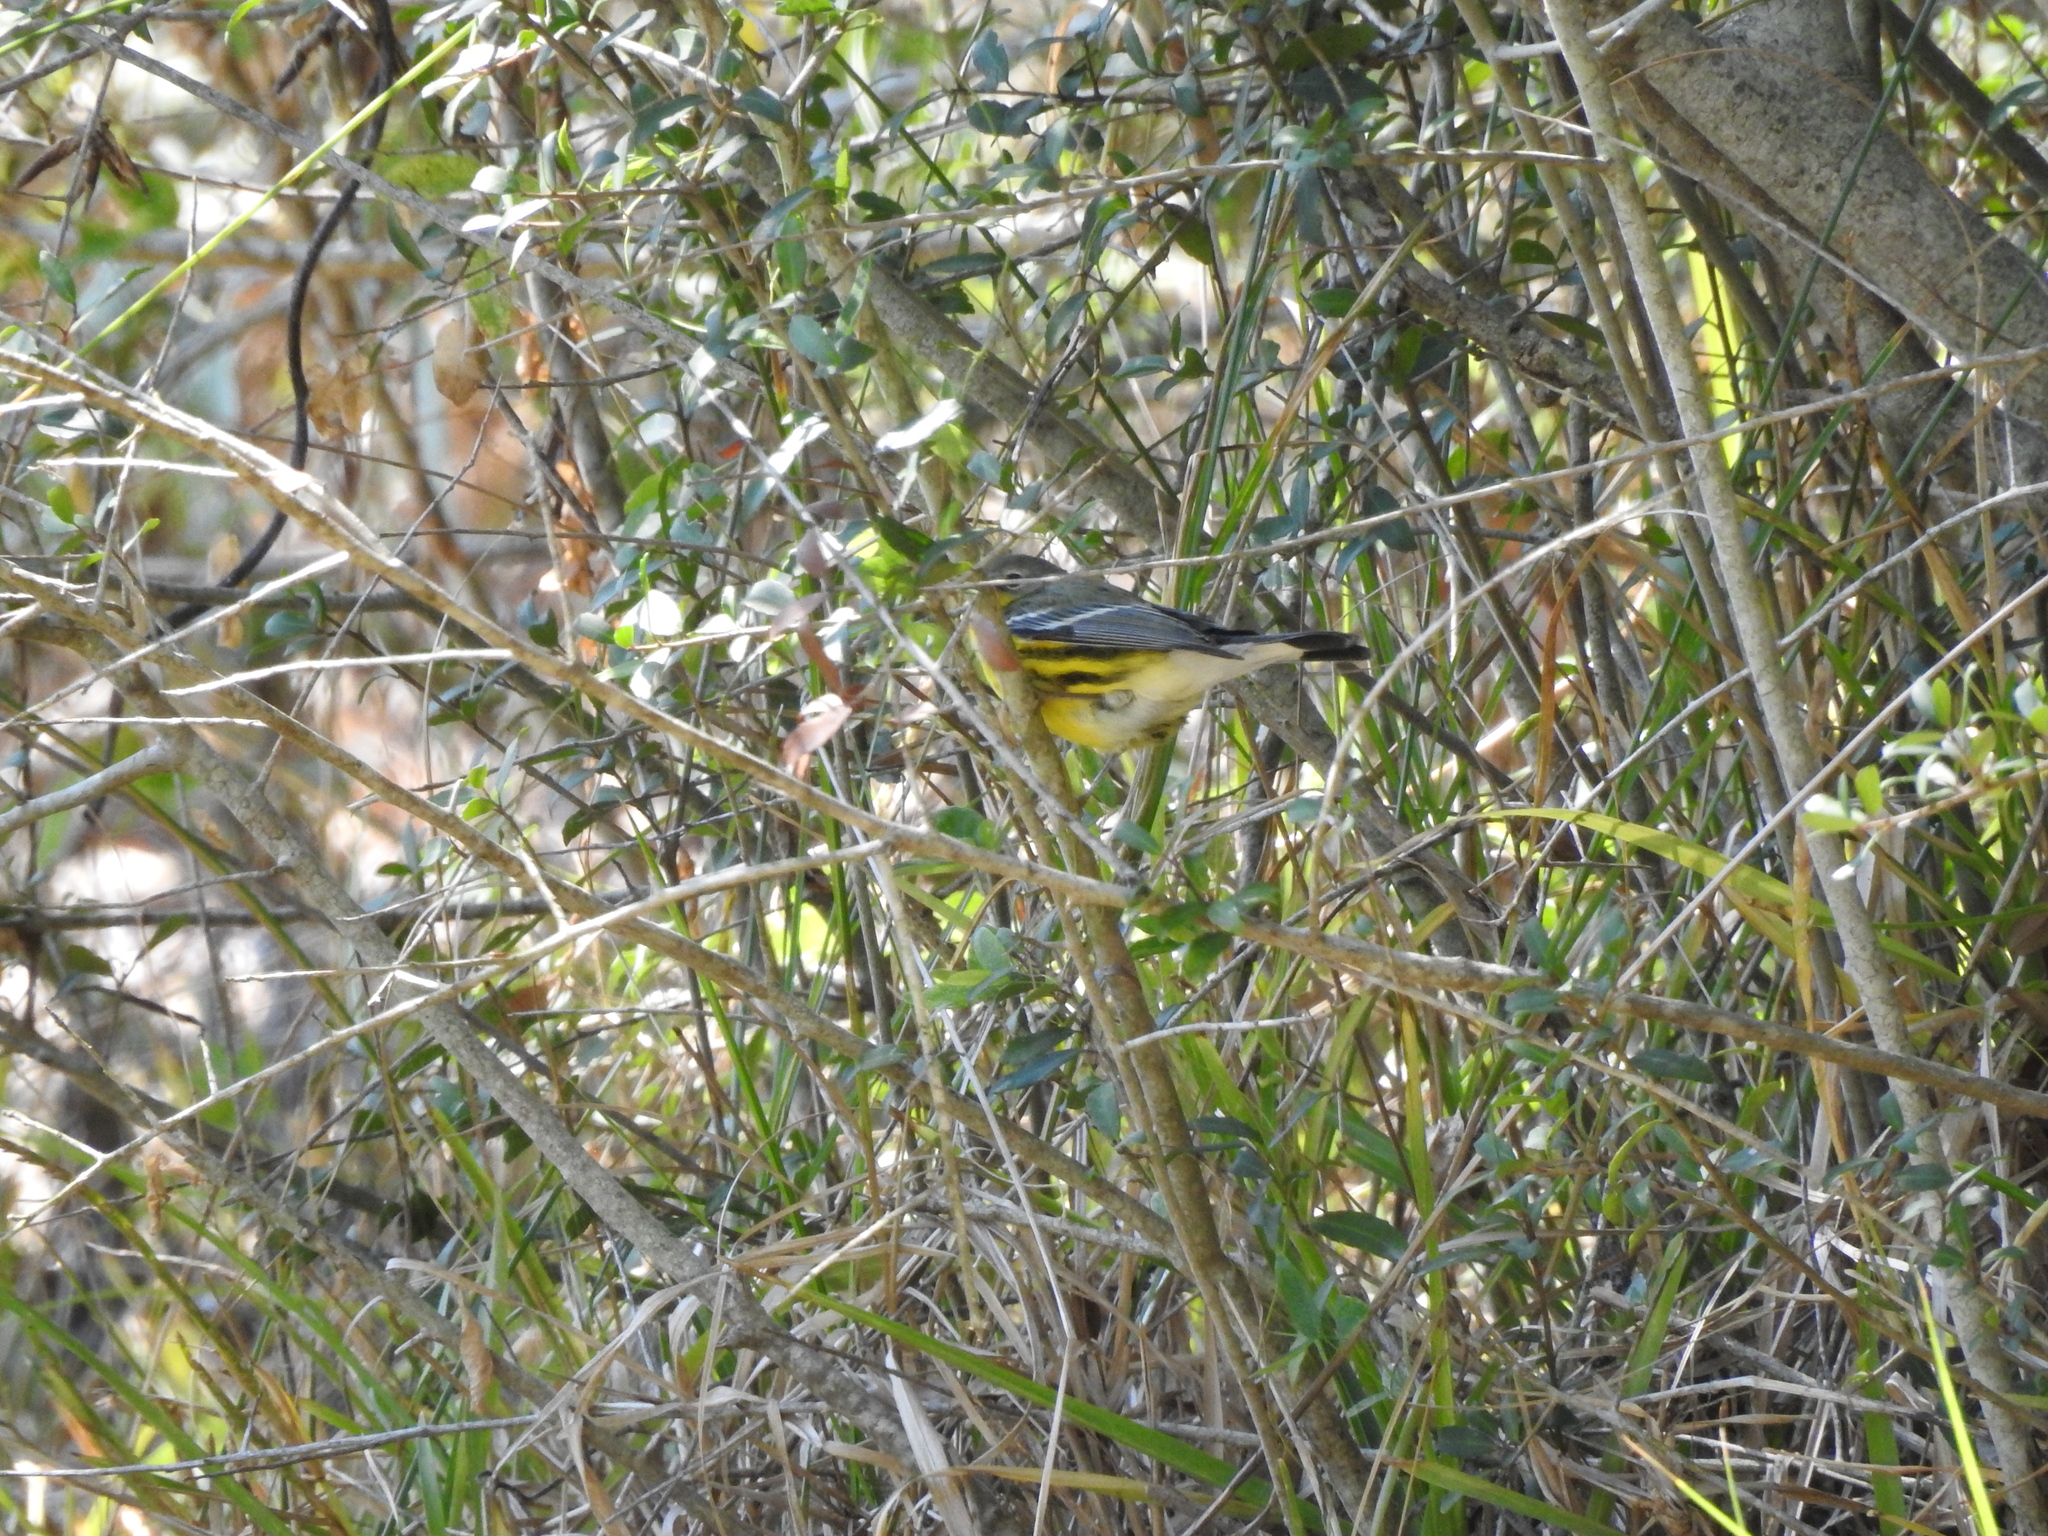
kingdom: Animalia
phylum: Chordata
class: Aves
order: Passeriformes
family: Parulidae
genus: Setophaga
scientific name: Setophaga magnolia
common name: Magnolia warbler
